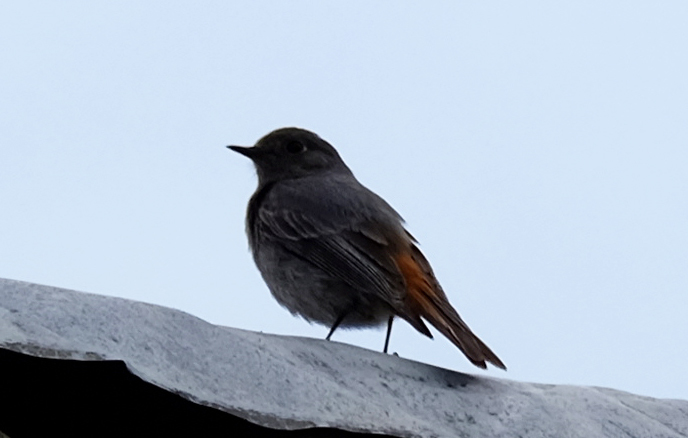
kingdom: Animalia
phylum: Chordata
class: Aves
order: Passeriformes
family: Muscicapidae
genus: Phoenicurus
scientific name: Phoenicurus ochruros
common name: Black redstart
